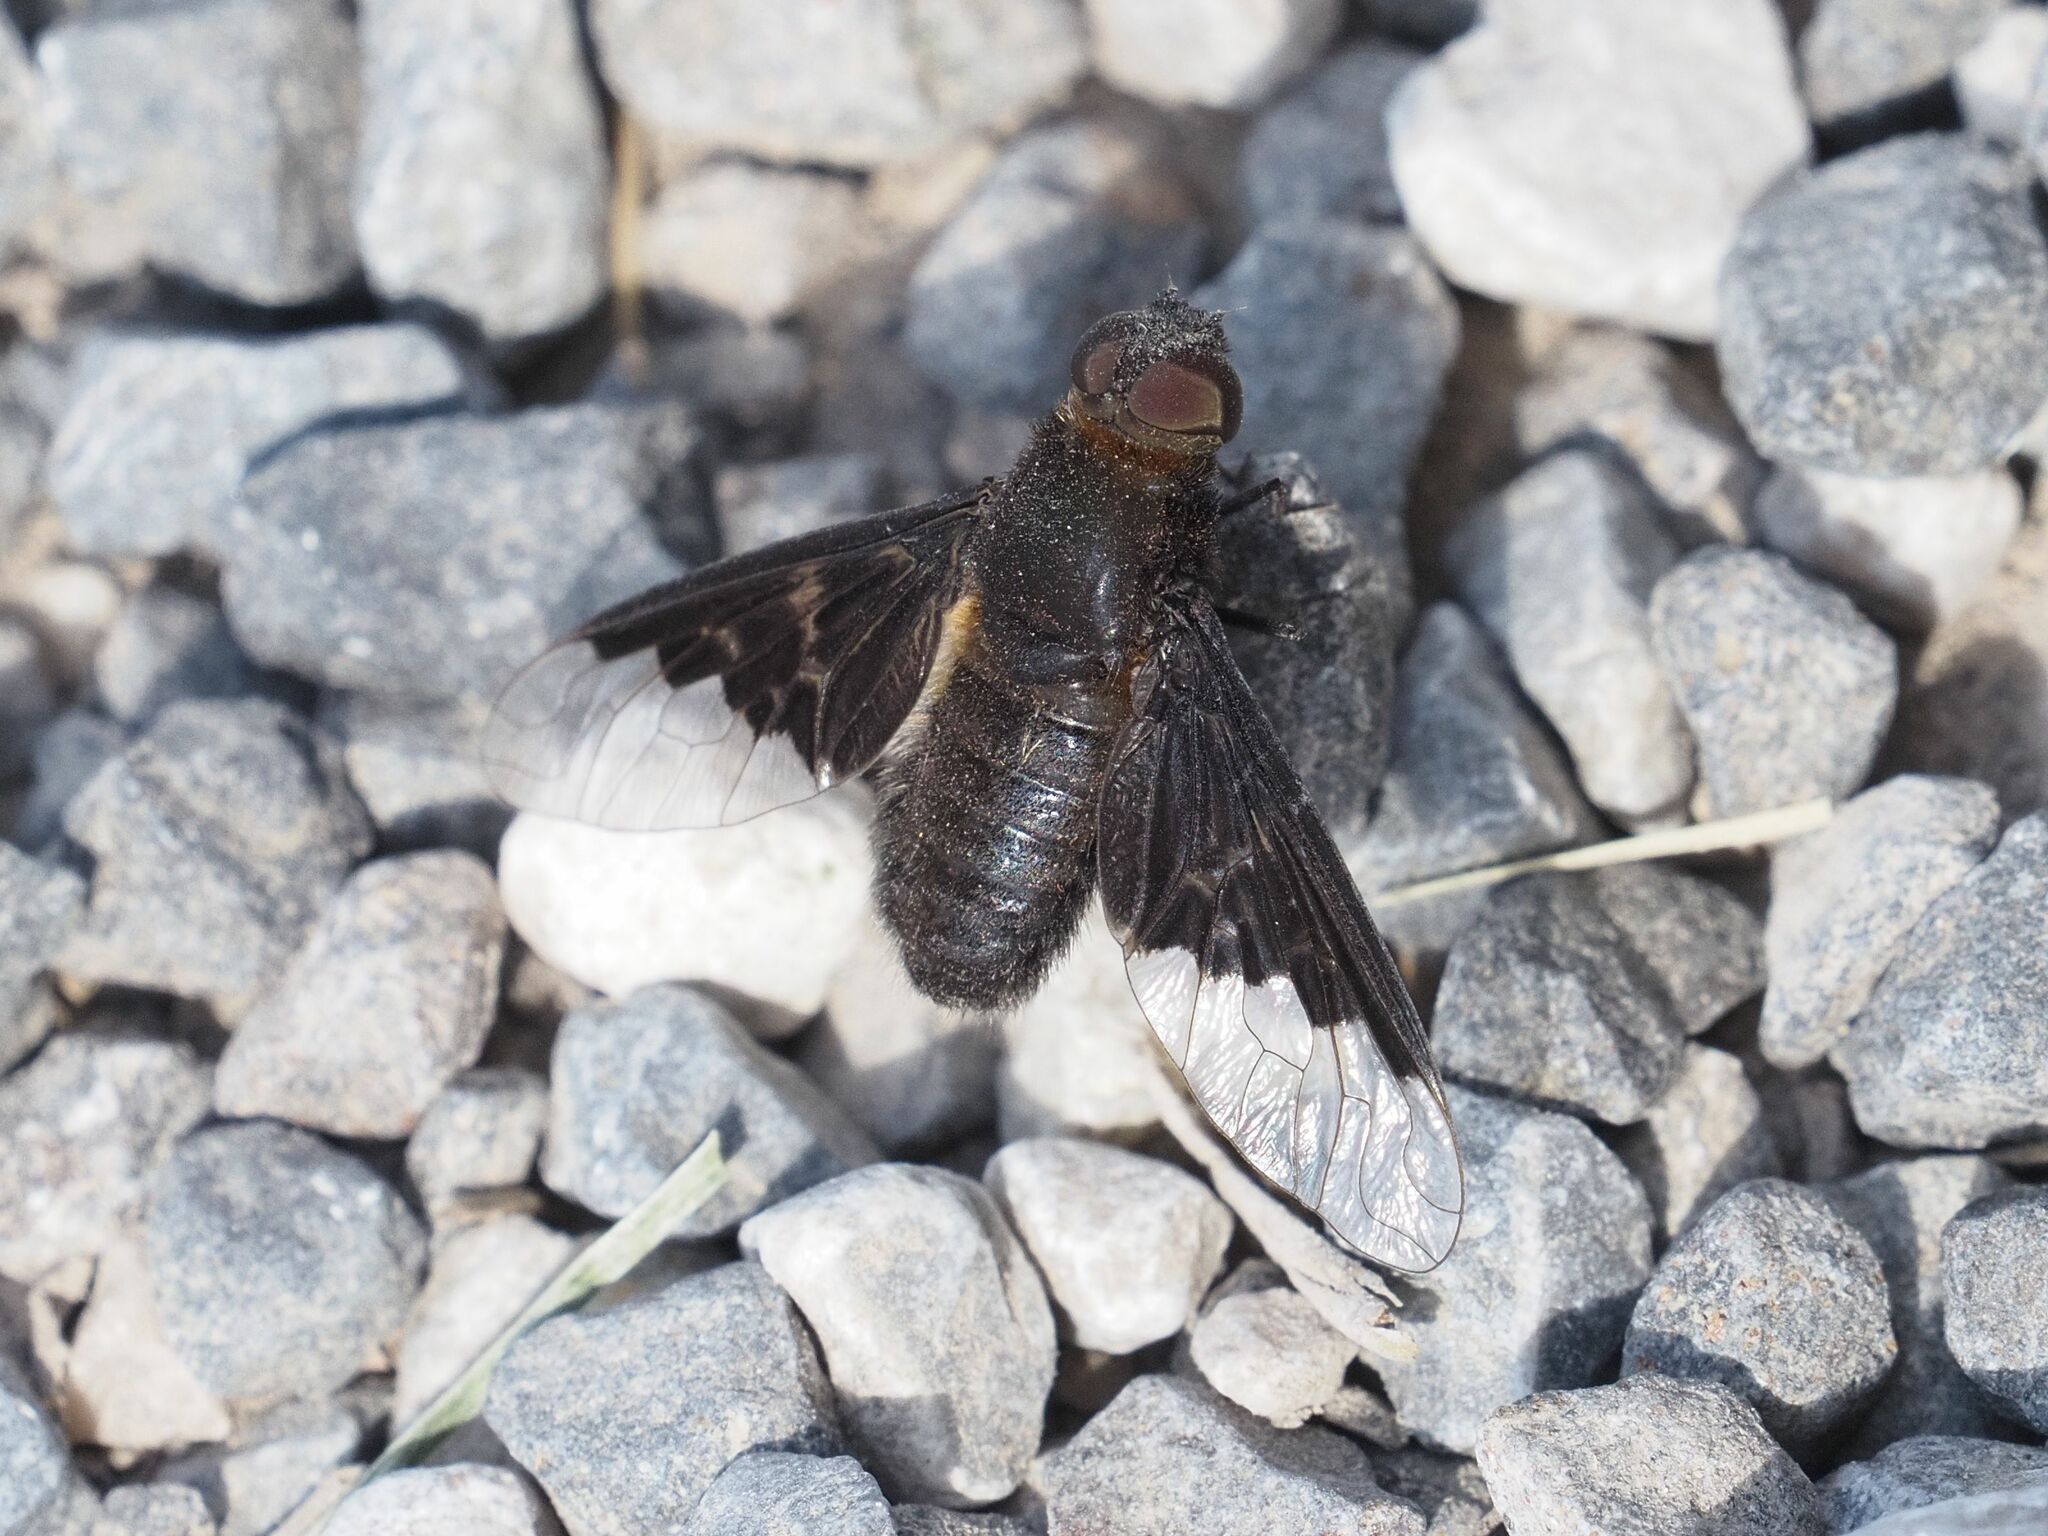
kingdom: Animalia
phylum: Arthropoda
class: Insecta
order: Diptera
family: Bombyliidae
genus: Hemipenthes
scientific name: Hemipenthes morio
